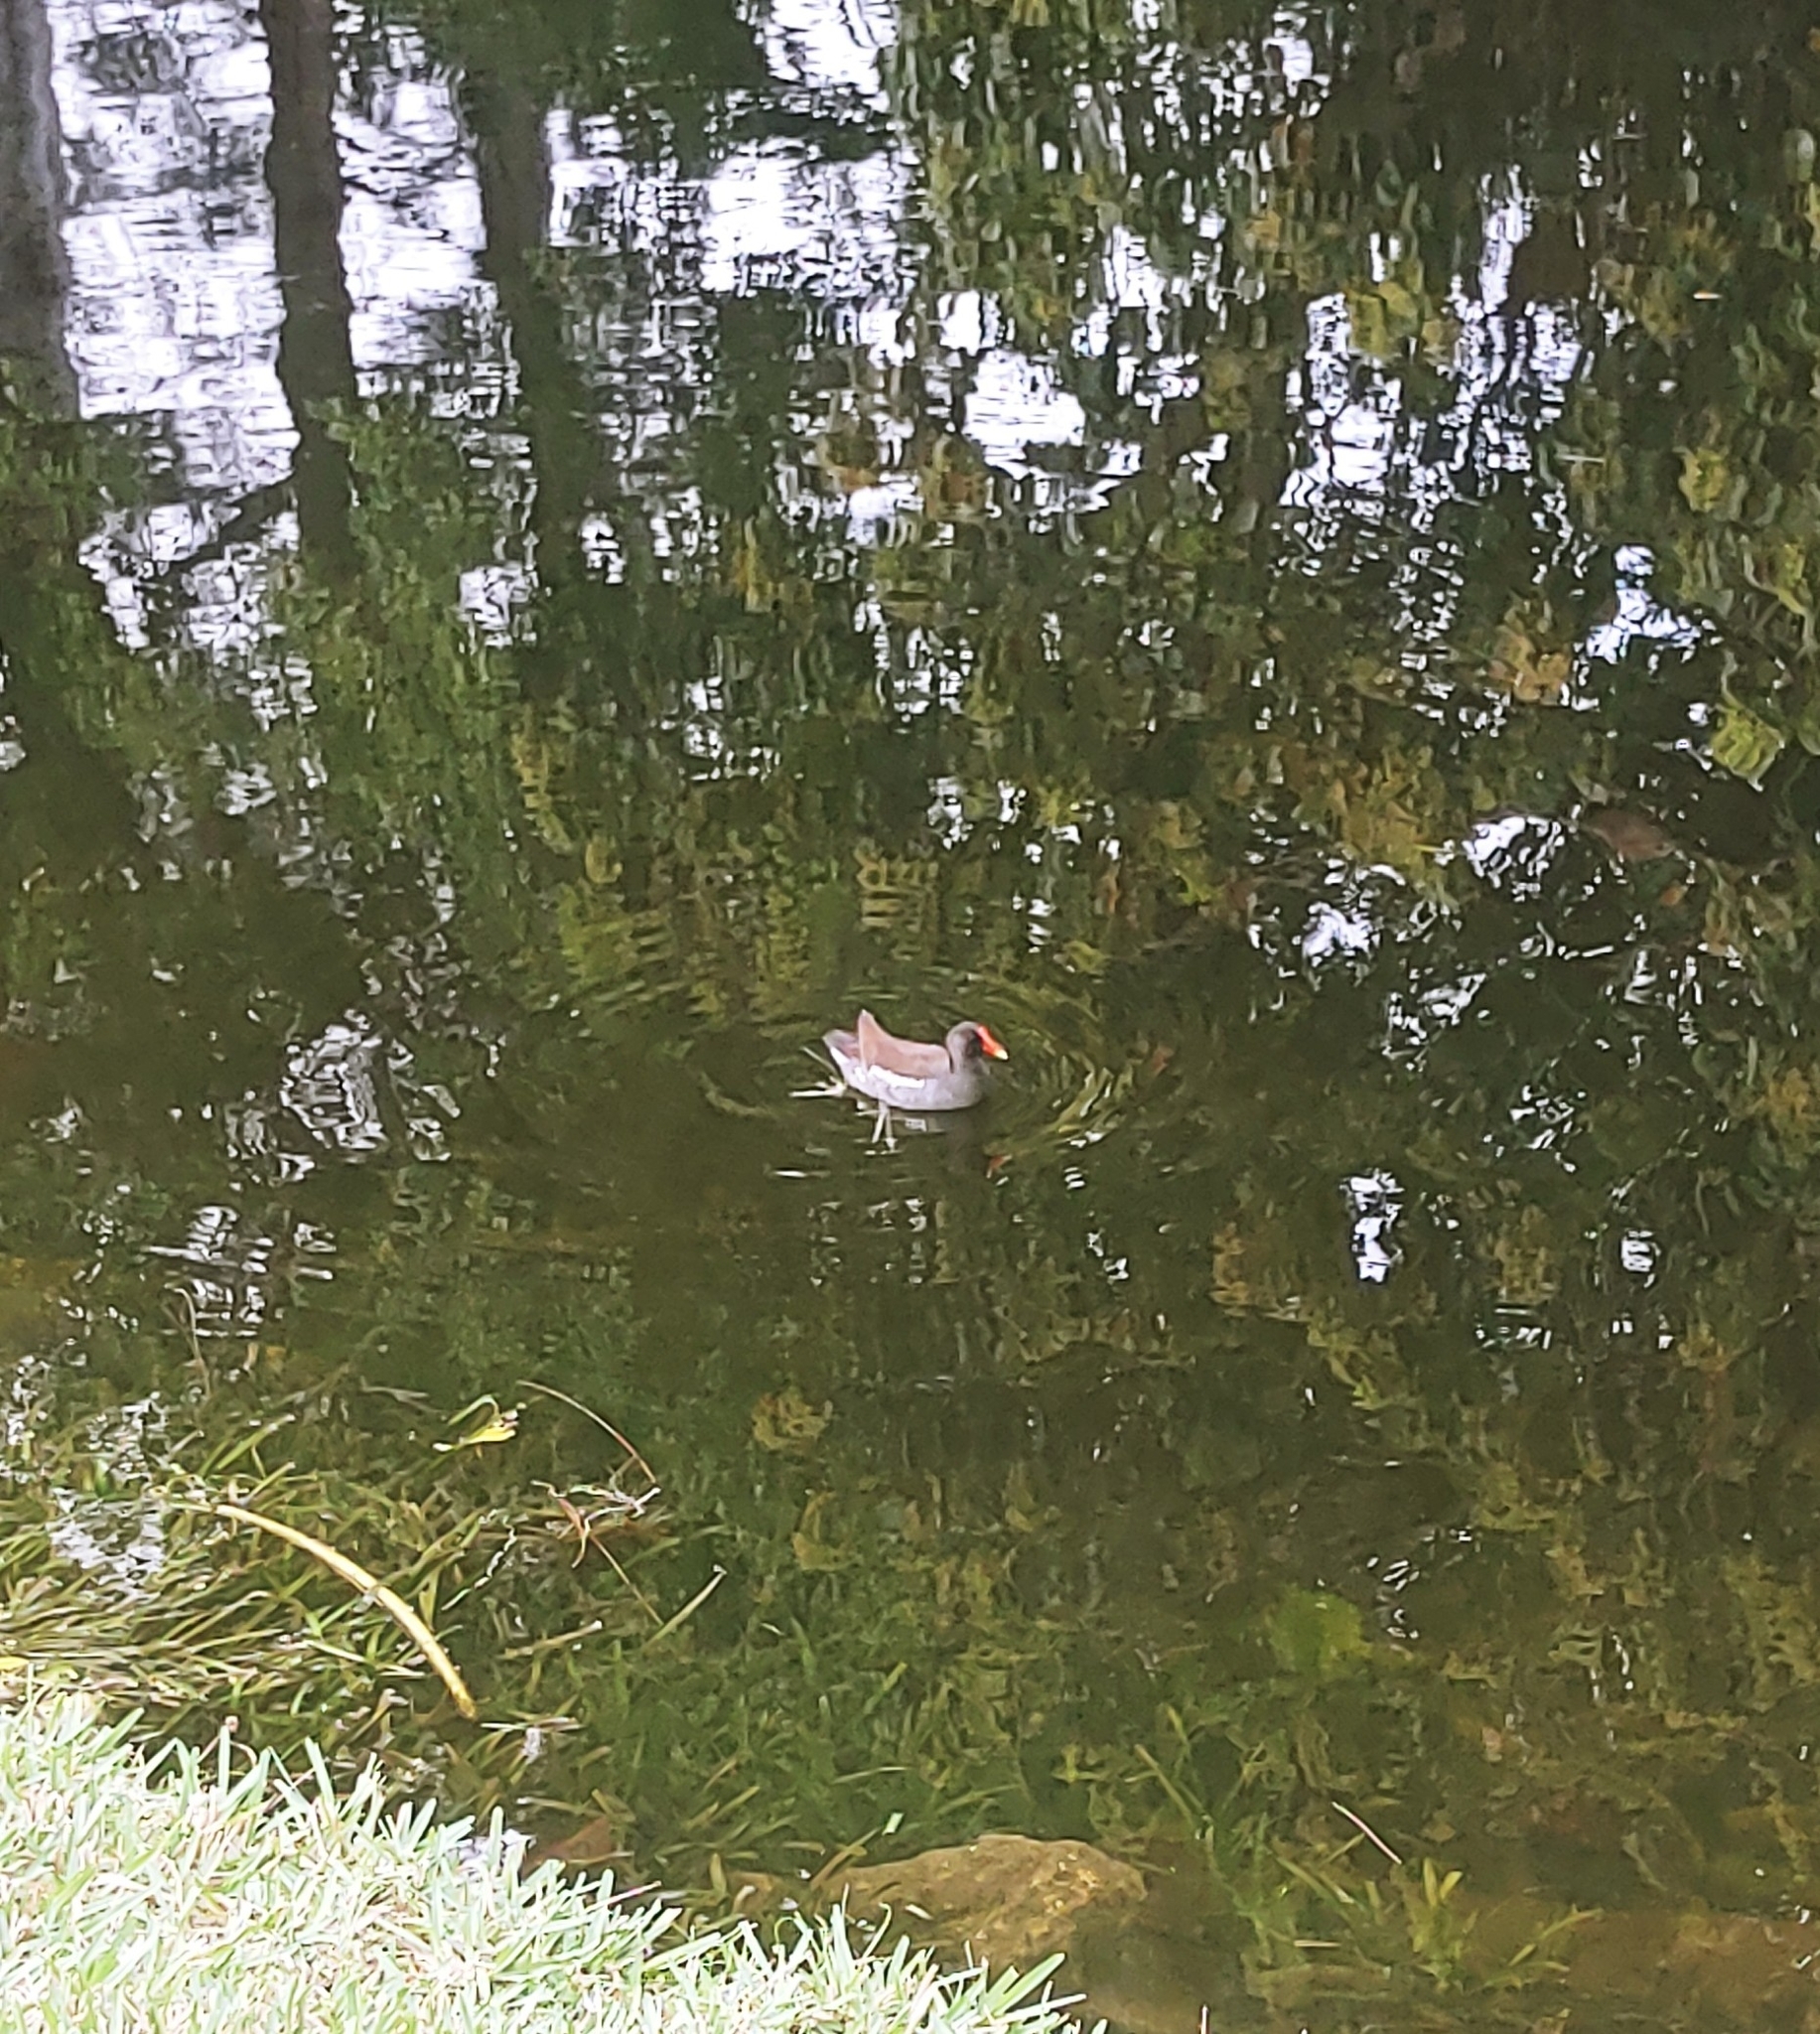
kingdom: Animalia
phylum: Chordata
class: Aves
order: Gruiformes
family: Rallidae
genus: Gallinula
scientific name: Gallinula chloropus
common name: Common moorhen
